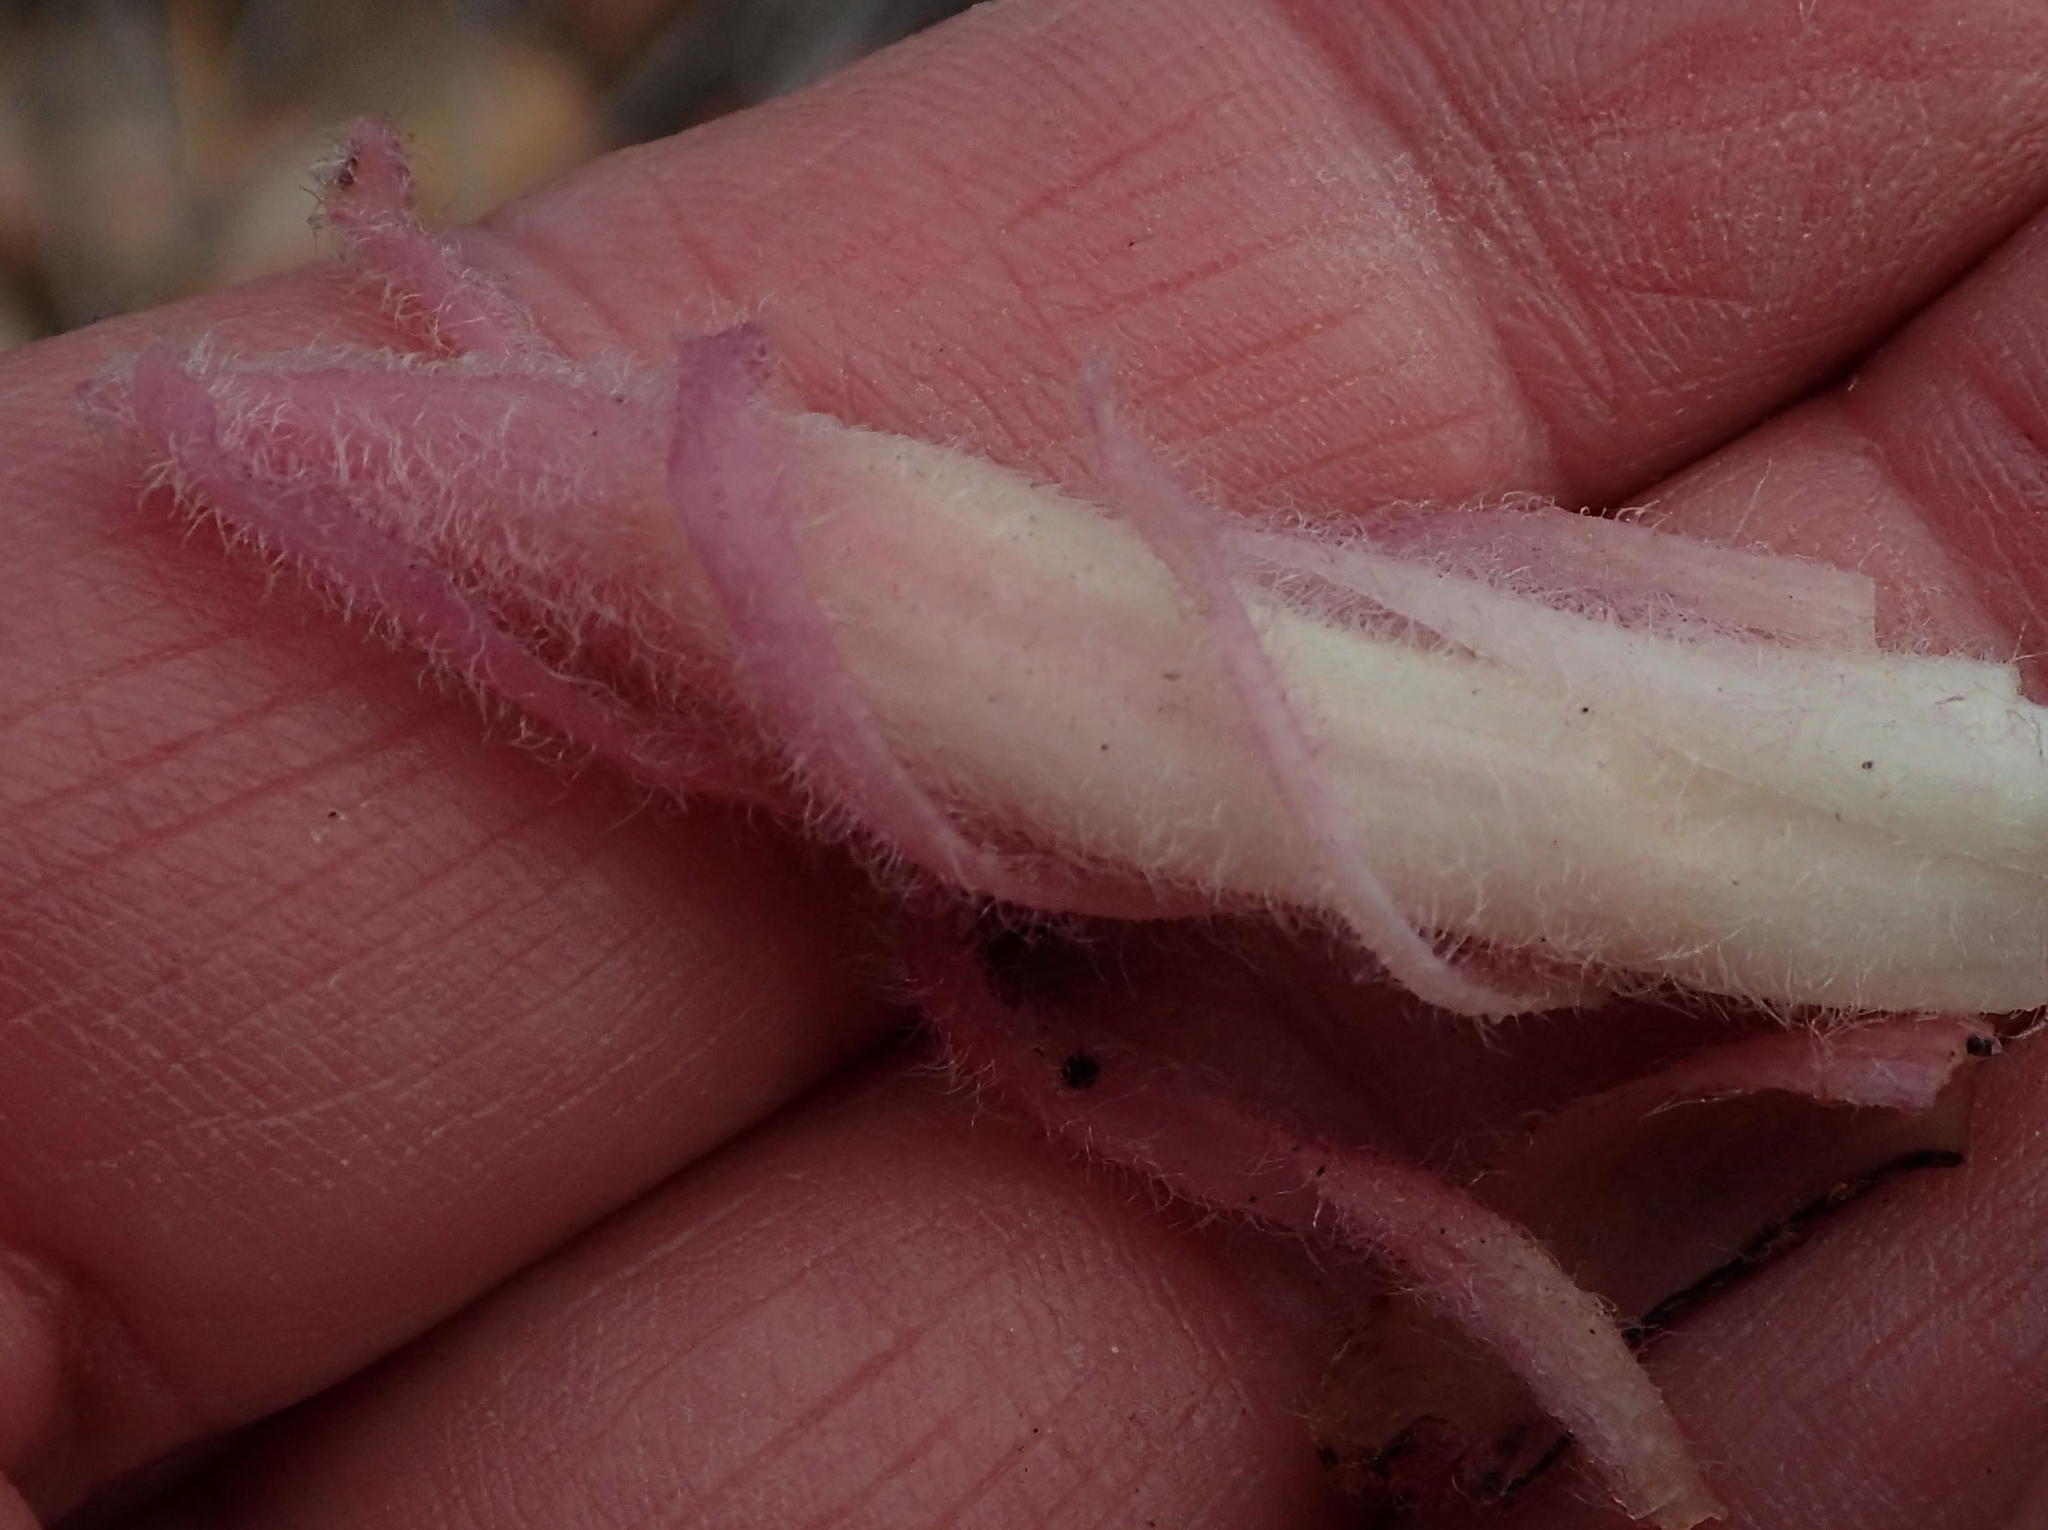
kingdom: Plantae
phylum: Tracheophyta
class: Magnoliopsida
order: Lamiales
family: Orobanchaceae
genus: Hyobanche
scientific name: Hyobanche rubra
